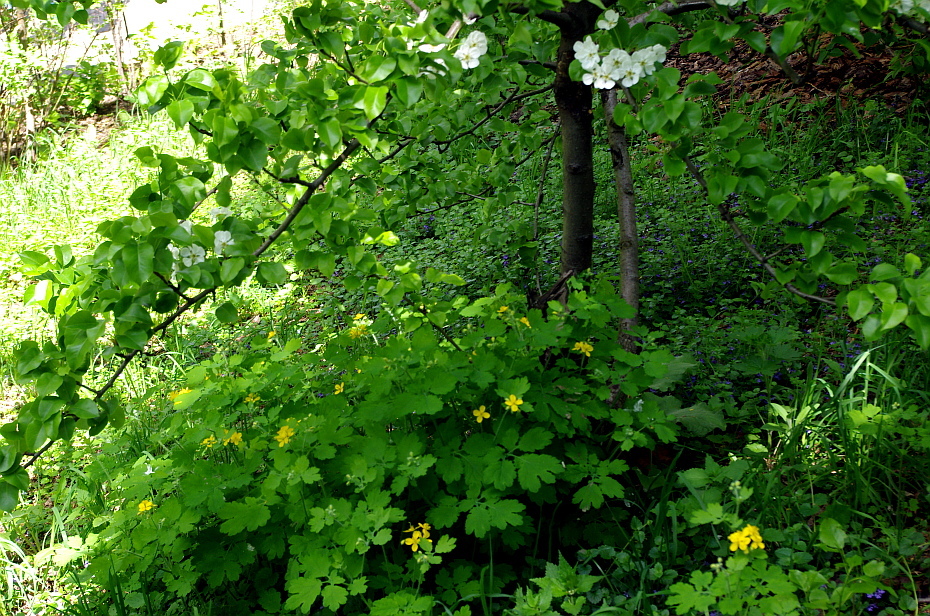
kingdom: Plantae
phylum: Tracheophyta
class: Magnoliopsida
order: Ranunculales
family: Papaveraceae
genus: Chelidonium
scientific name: Chelidonium majus
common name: Greater celandine
